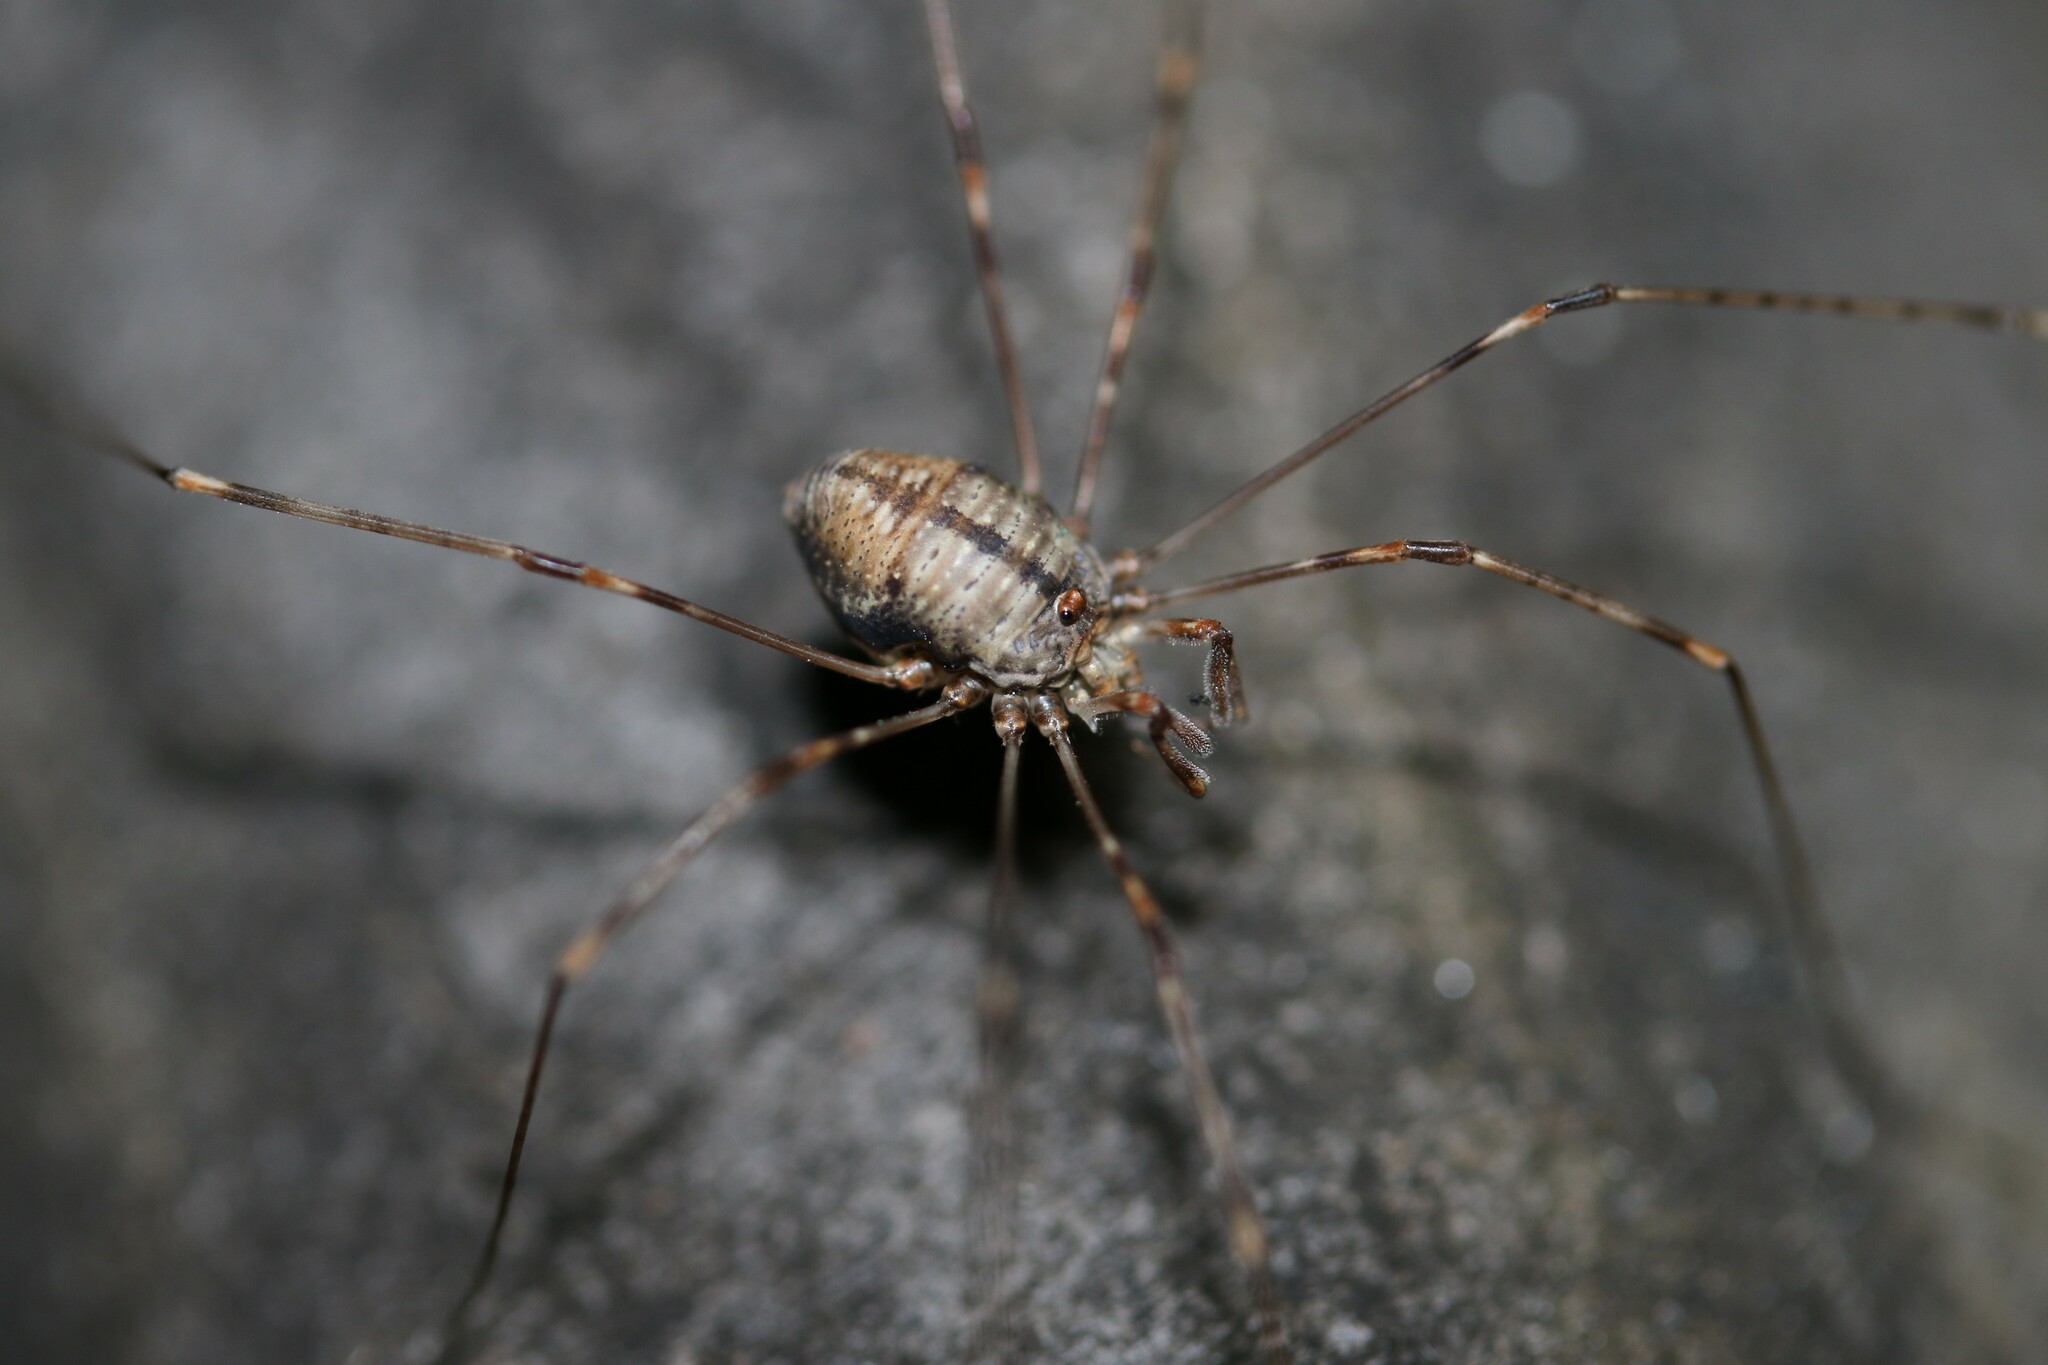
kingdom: Animalia
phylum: Arthropoda
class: Arachnida
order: Opiliones
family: Phalangiidae
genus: Dicranopalpus
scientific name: Dicranopalpus ramosus
